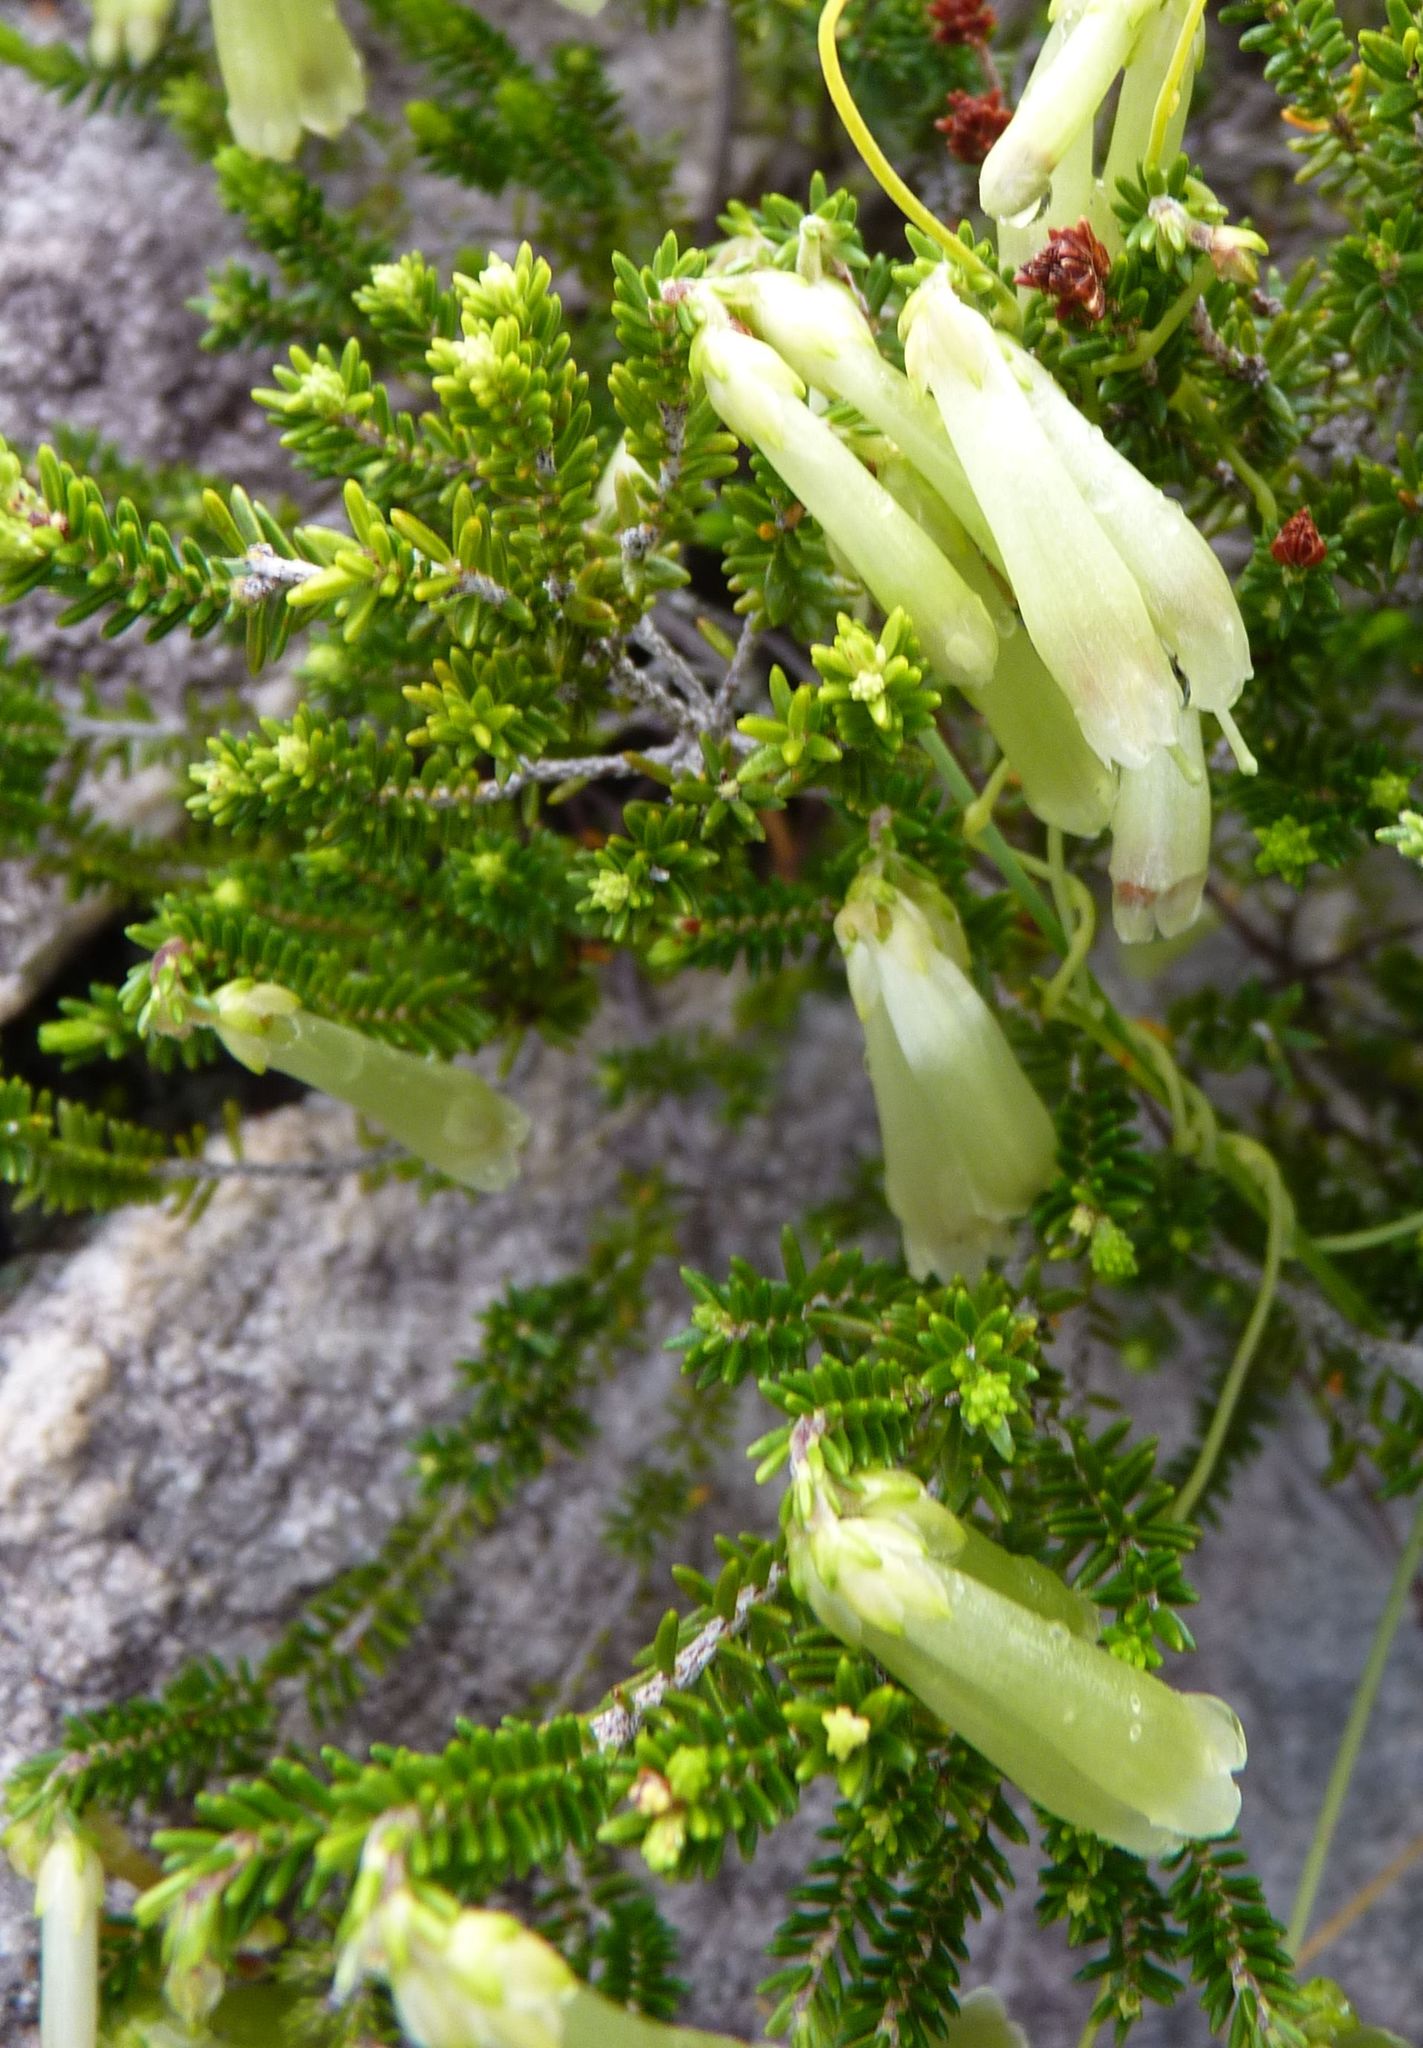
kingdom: Plantae
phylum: Tracheophyta
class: Magnoliopsida
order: Ericales
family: Ericaceae
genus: Erica
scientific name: Erica viridiflora
